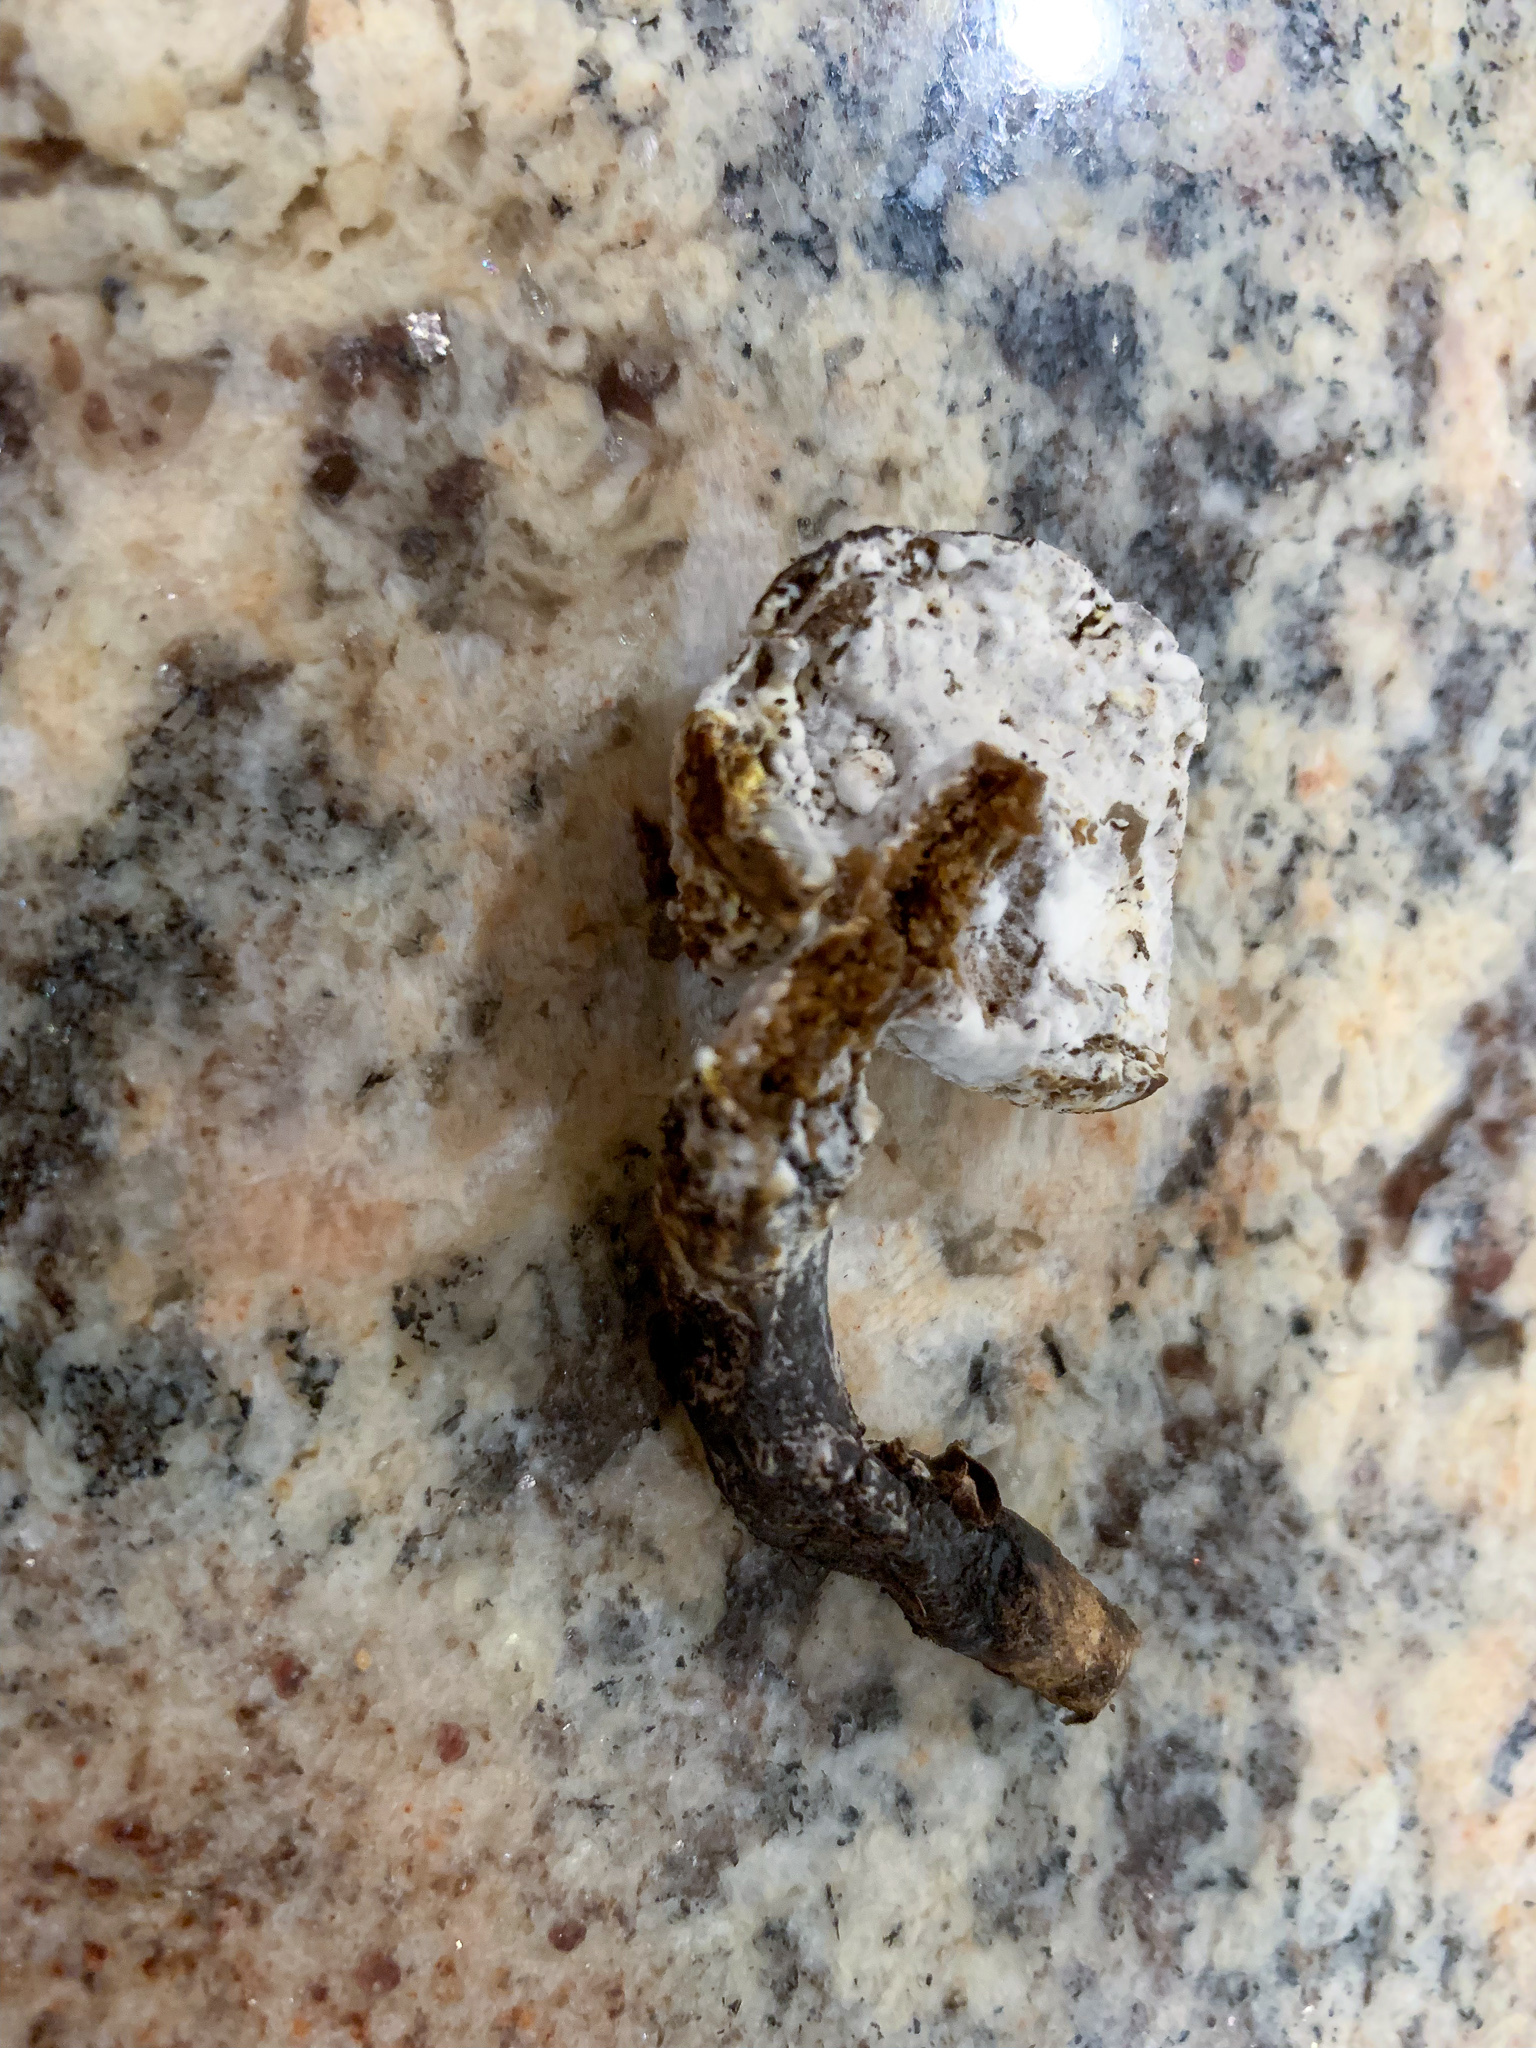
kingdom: Fungi
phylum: Ascomycota
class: Sordariomycetes
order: Hypocreales
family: Hypocreaceae
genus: Hypomyces
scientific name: Hypomyces chrysospermus
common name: Bolete mould
